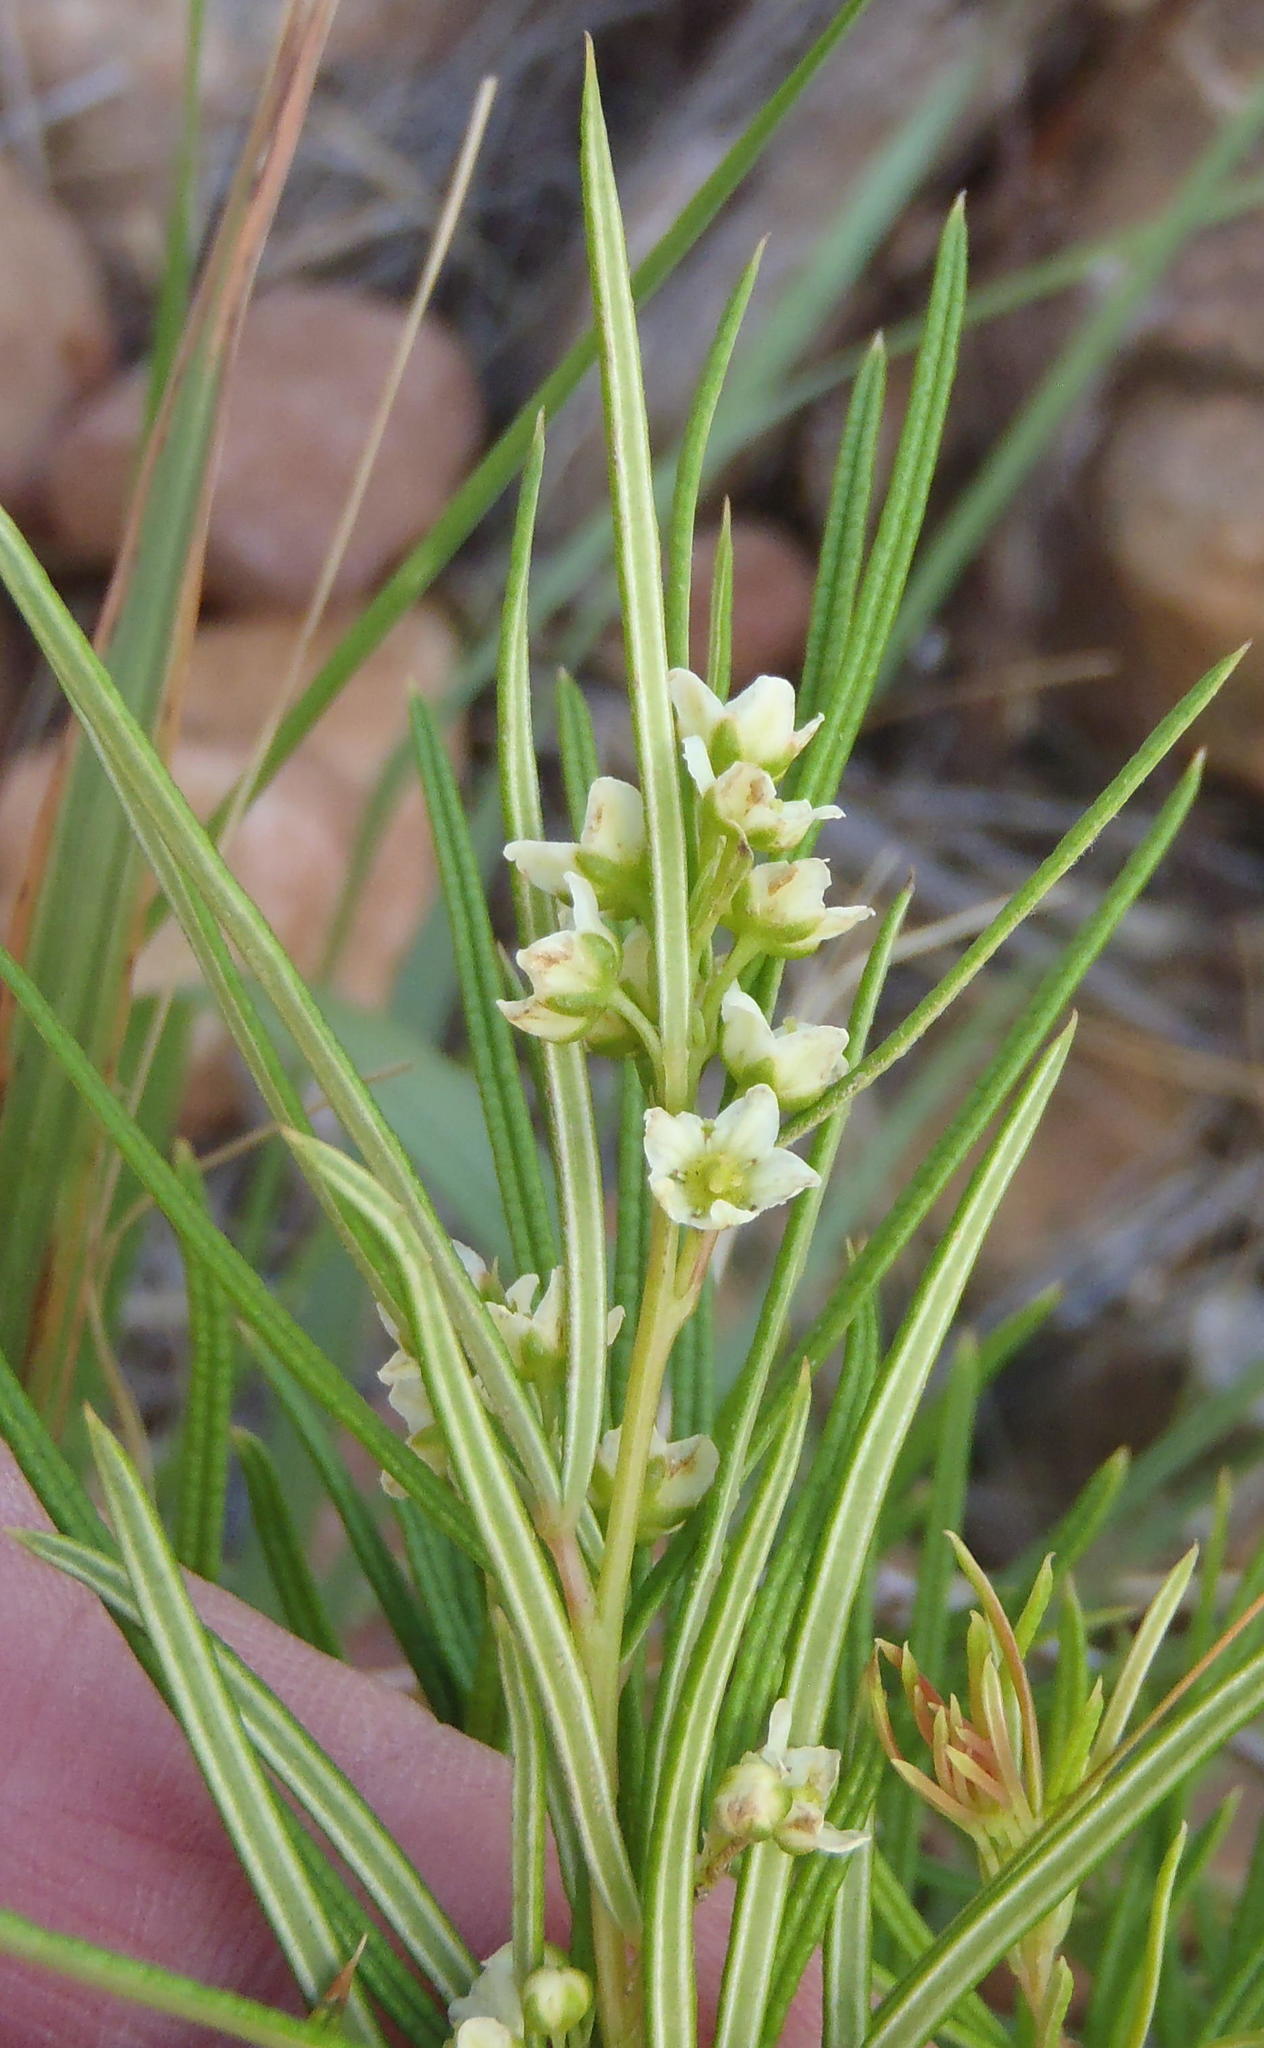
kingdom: Plantae
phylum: Tracheophyta
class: Magnoliopsida
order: Sapindales
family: Anacardiaceae
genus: Searsia
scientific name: Searsia rosmarinifolia
